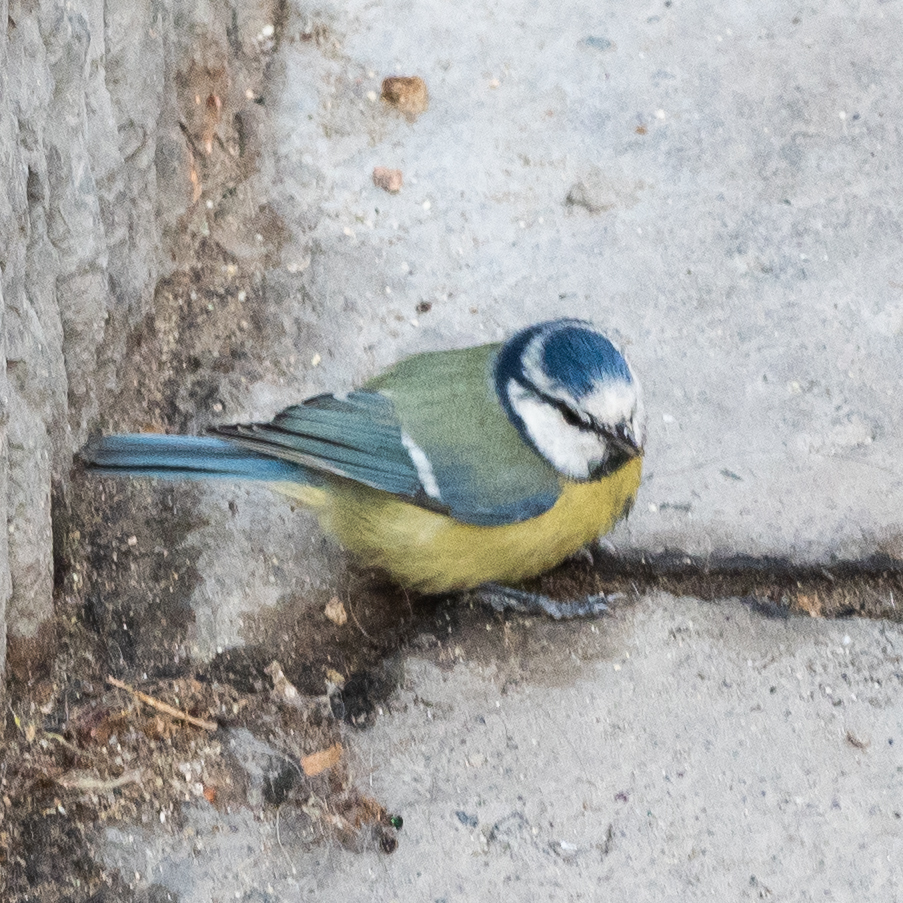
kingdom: Animalia
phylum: Chordata
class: Aves
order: Passeriformes
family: Paridae
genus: Cyanistes
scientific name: Cyanistes caeruleus
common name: Eurasian blue tit
